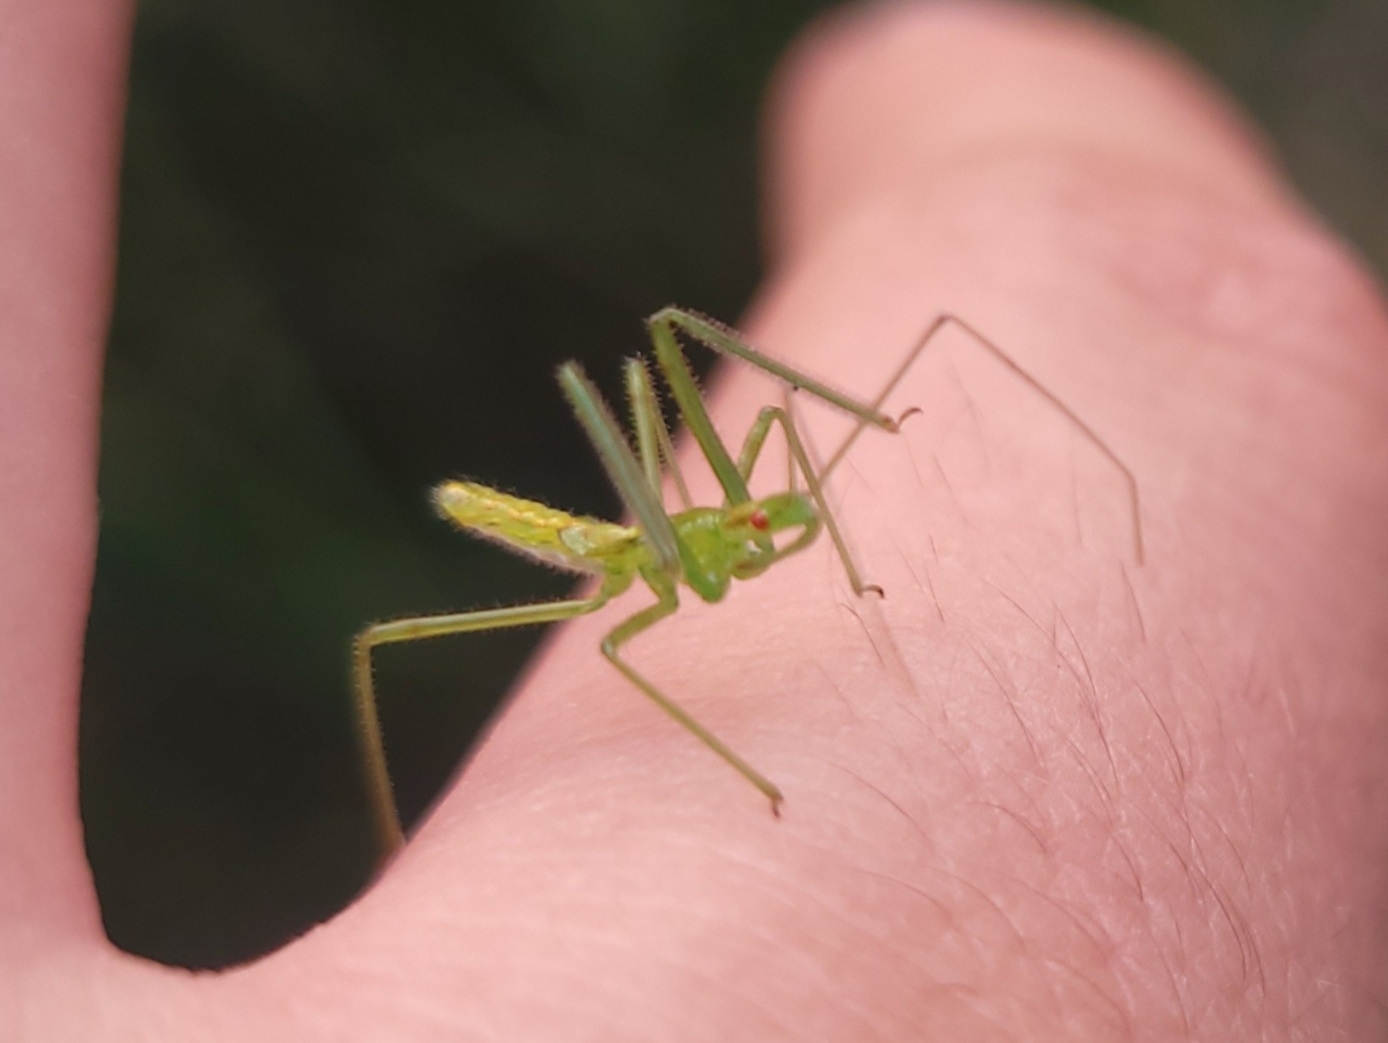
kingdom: Animalia
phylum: Arthropoda
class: Insecta
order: Hemiptera
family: Reduviidae
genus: Zelus
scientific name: Zelus luridus
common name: Pale green assassin bug
